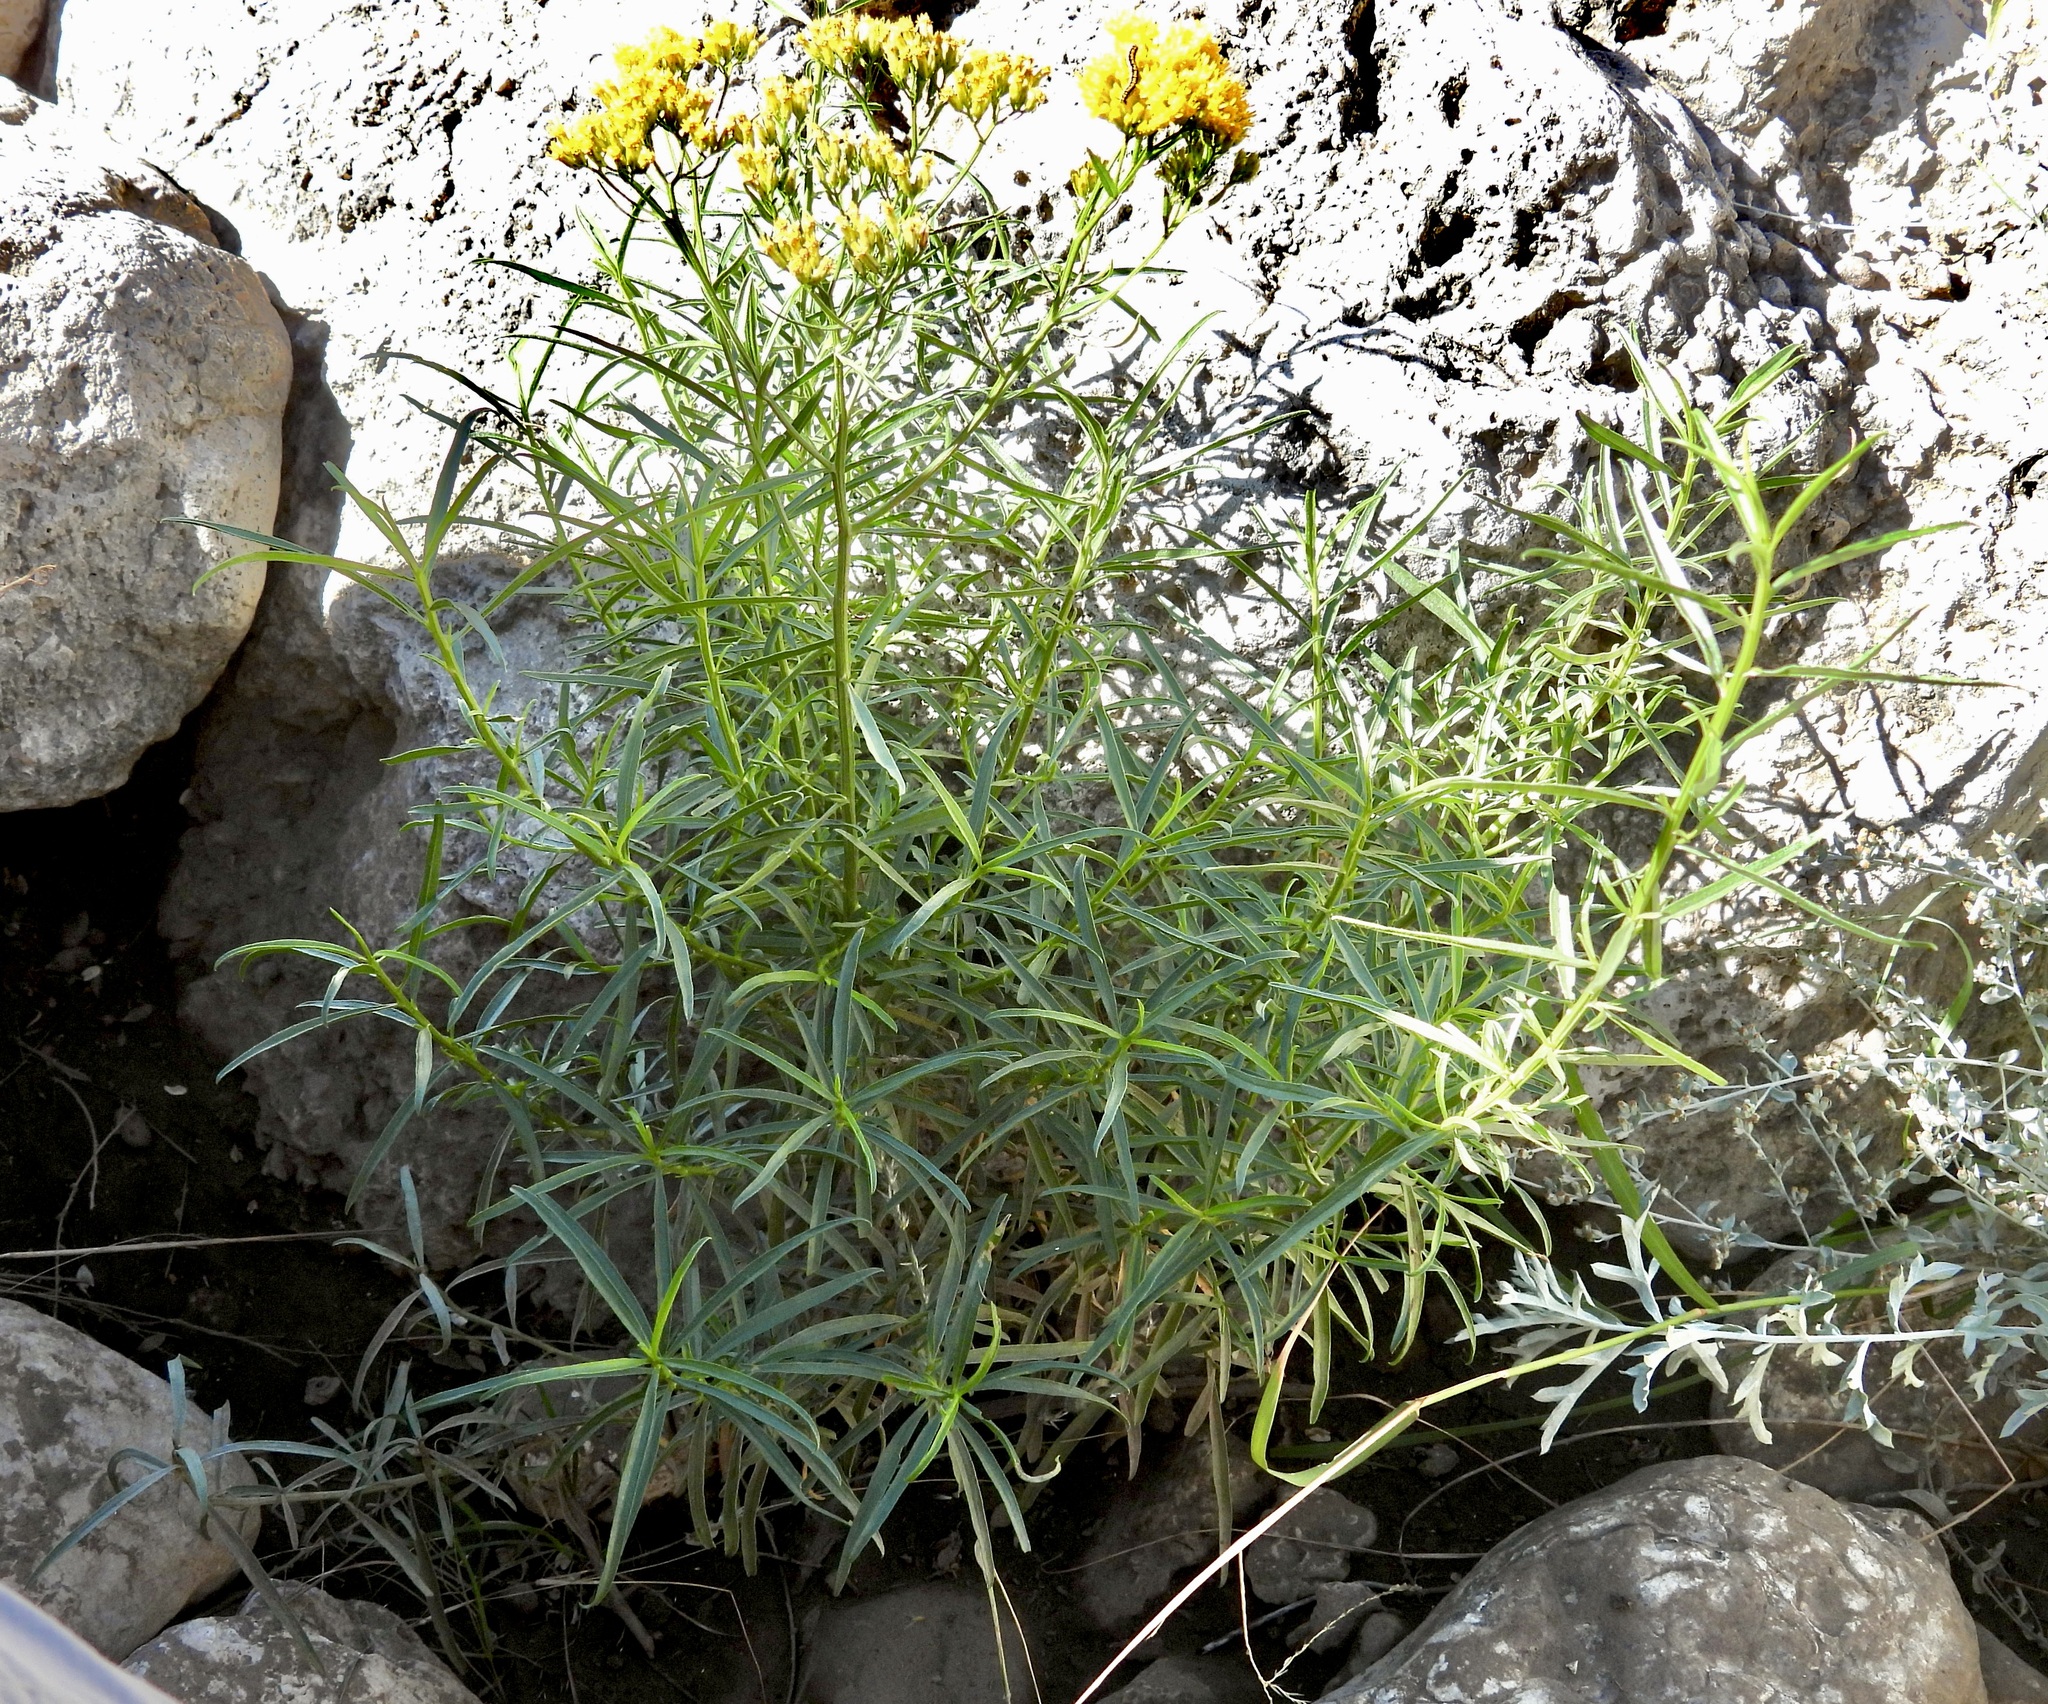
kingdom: Plantae
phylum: Tracheophyta
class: Magnoliopsida
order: Asterales
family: Asteraceae
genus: Gymnosperma
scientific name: Gymnosperma glutinosum
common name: Gumhead
